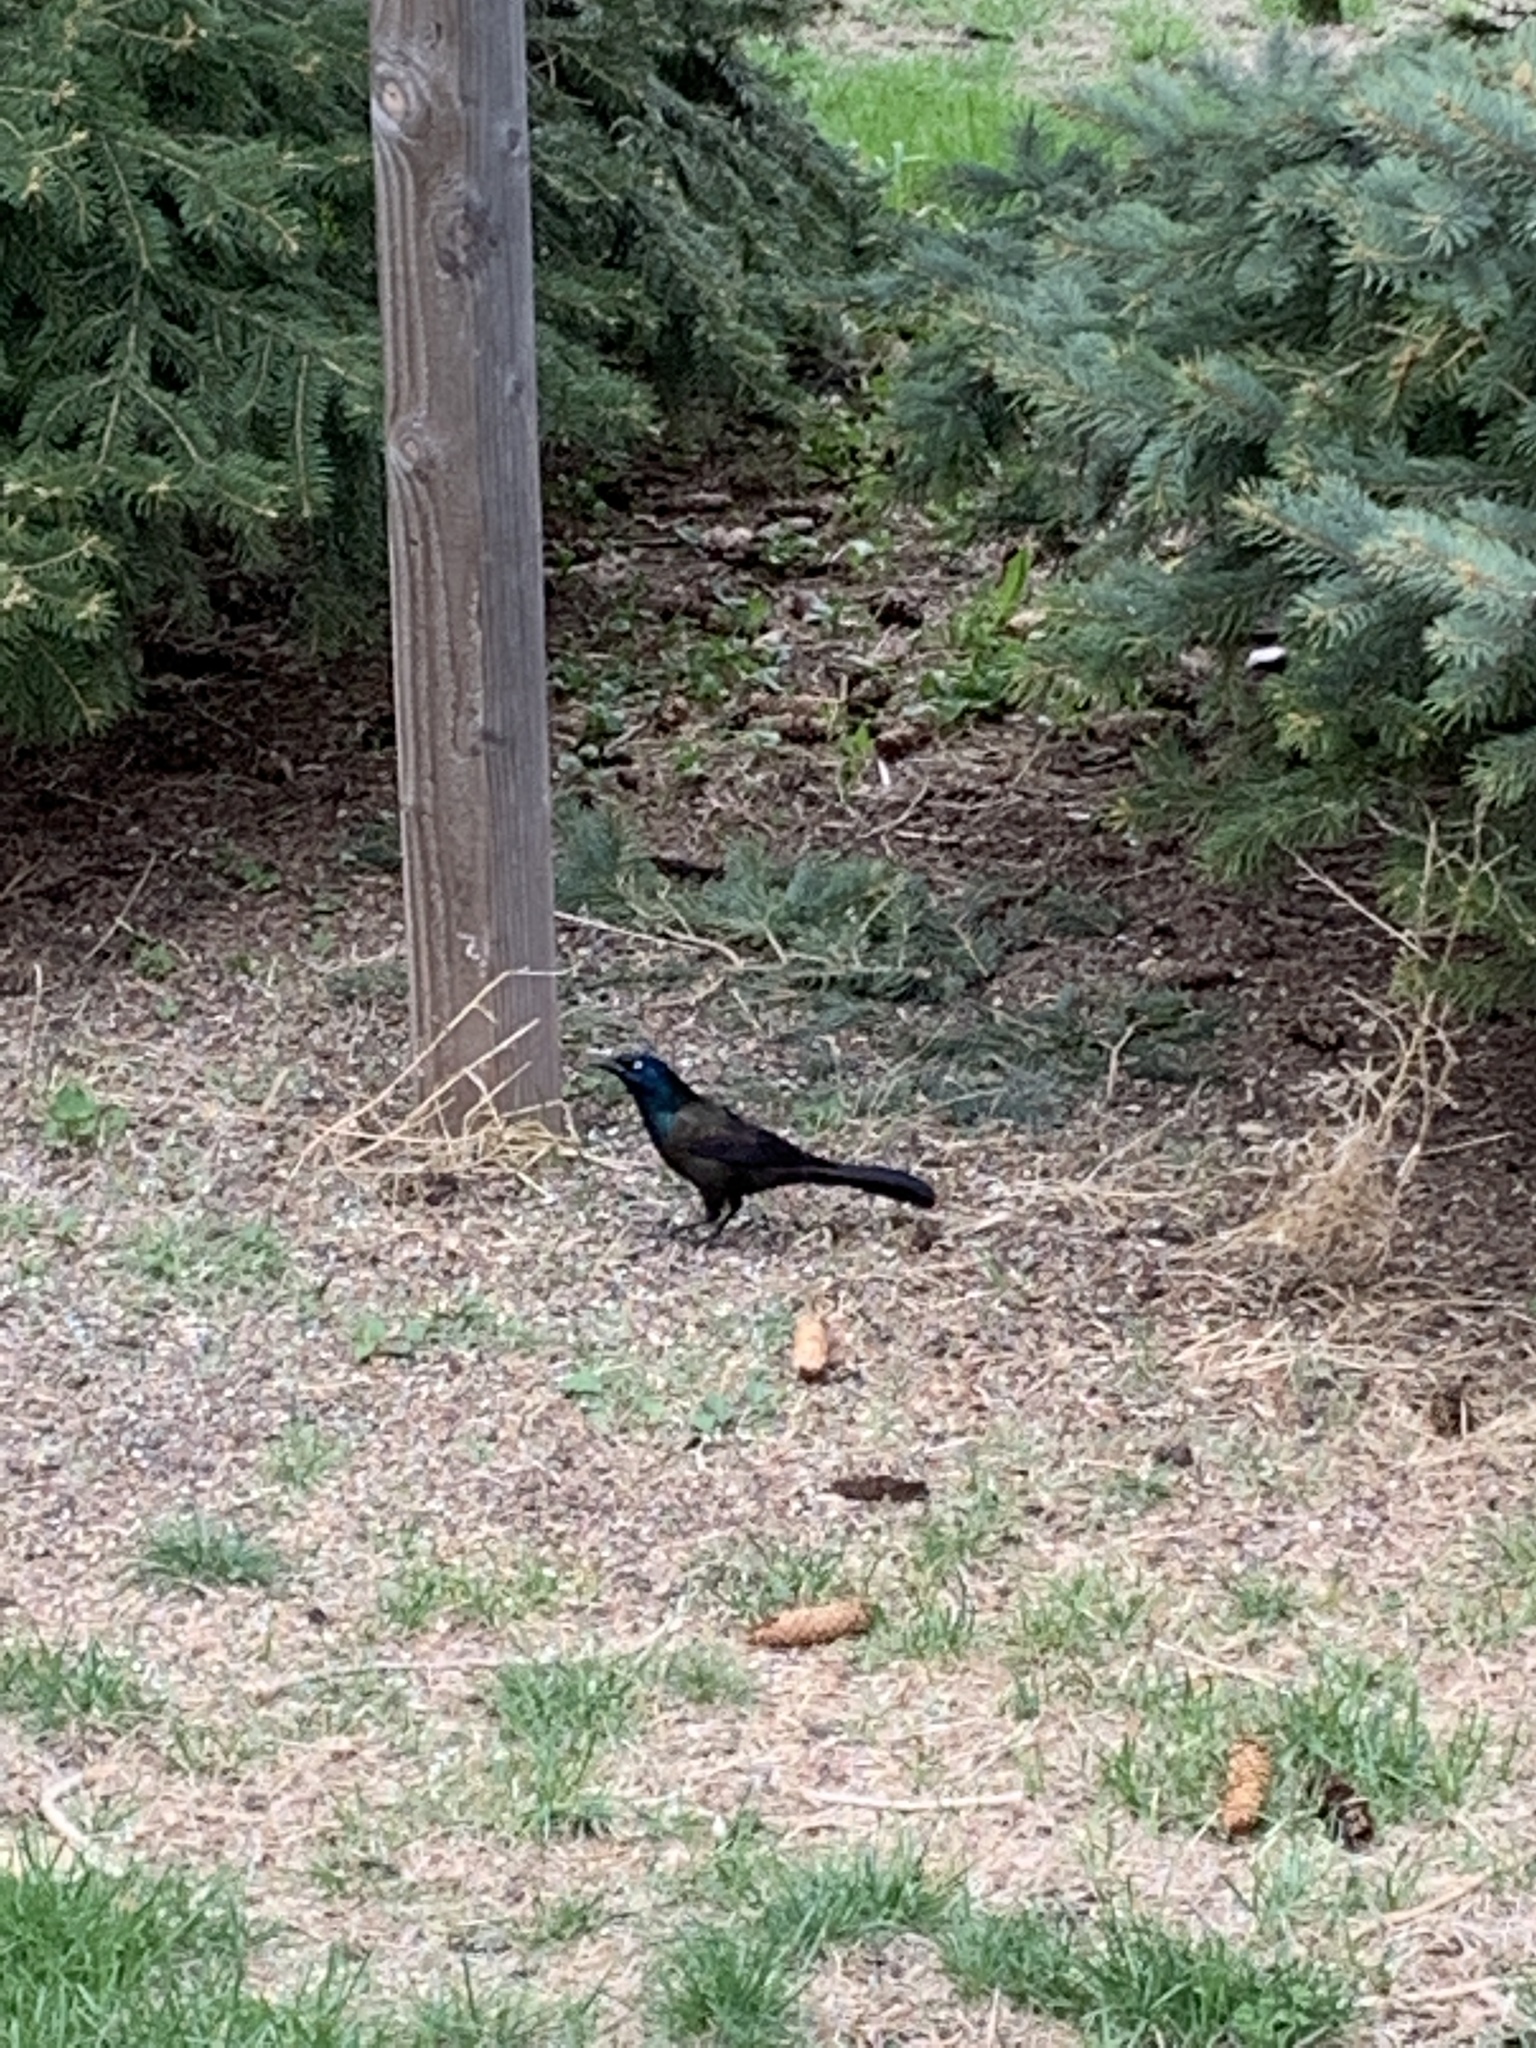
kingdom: Animalia
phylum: Chordata
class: Aves
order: Passeriformes
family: Icteridae
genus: Quiscalus
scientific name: Quiscalus quiscula
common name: Common grackle
